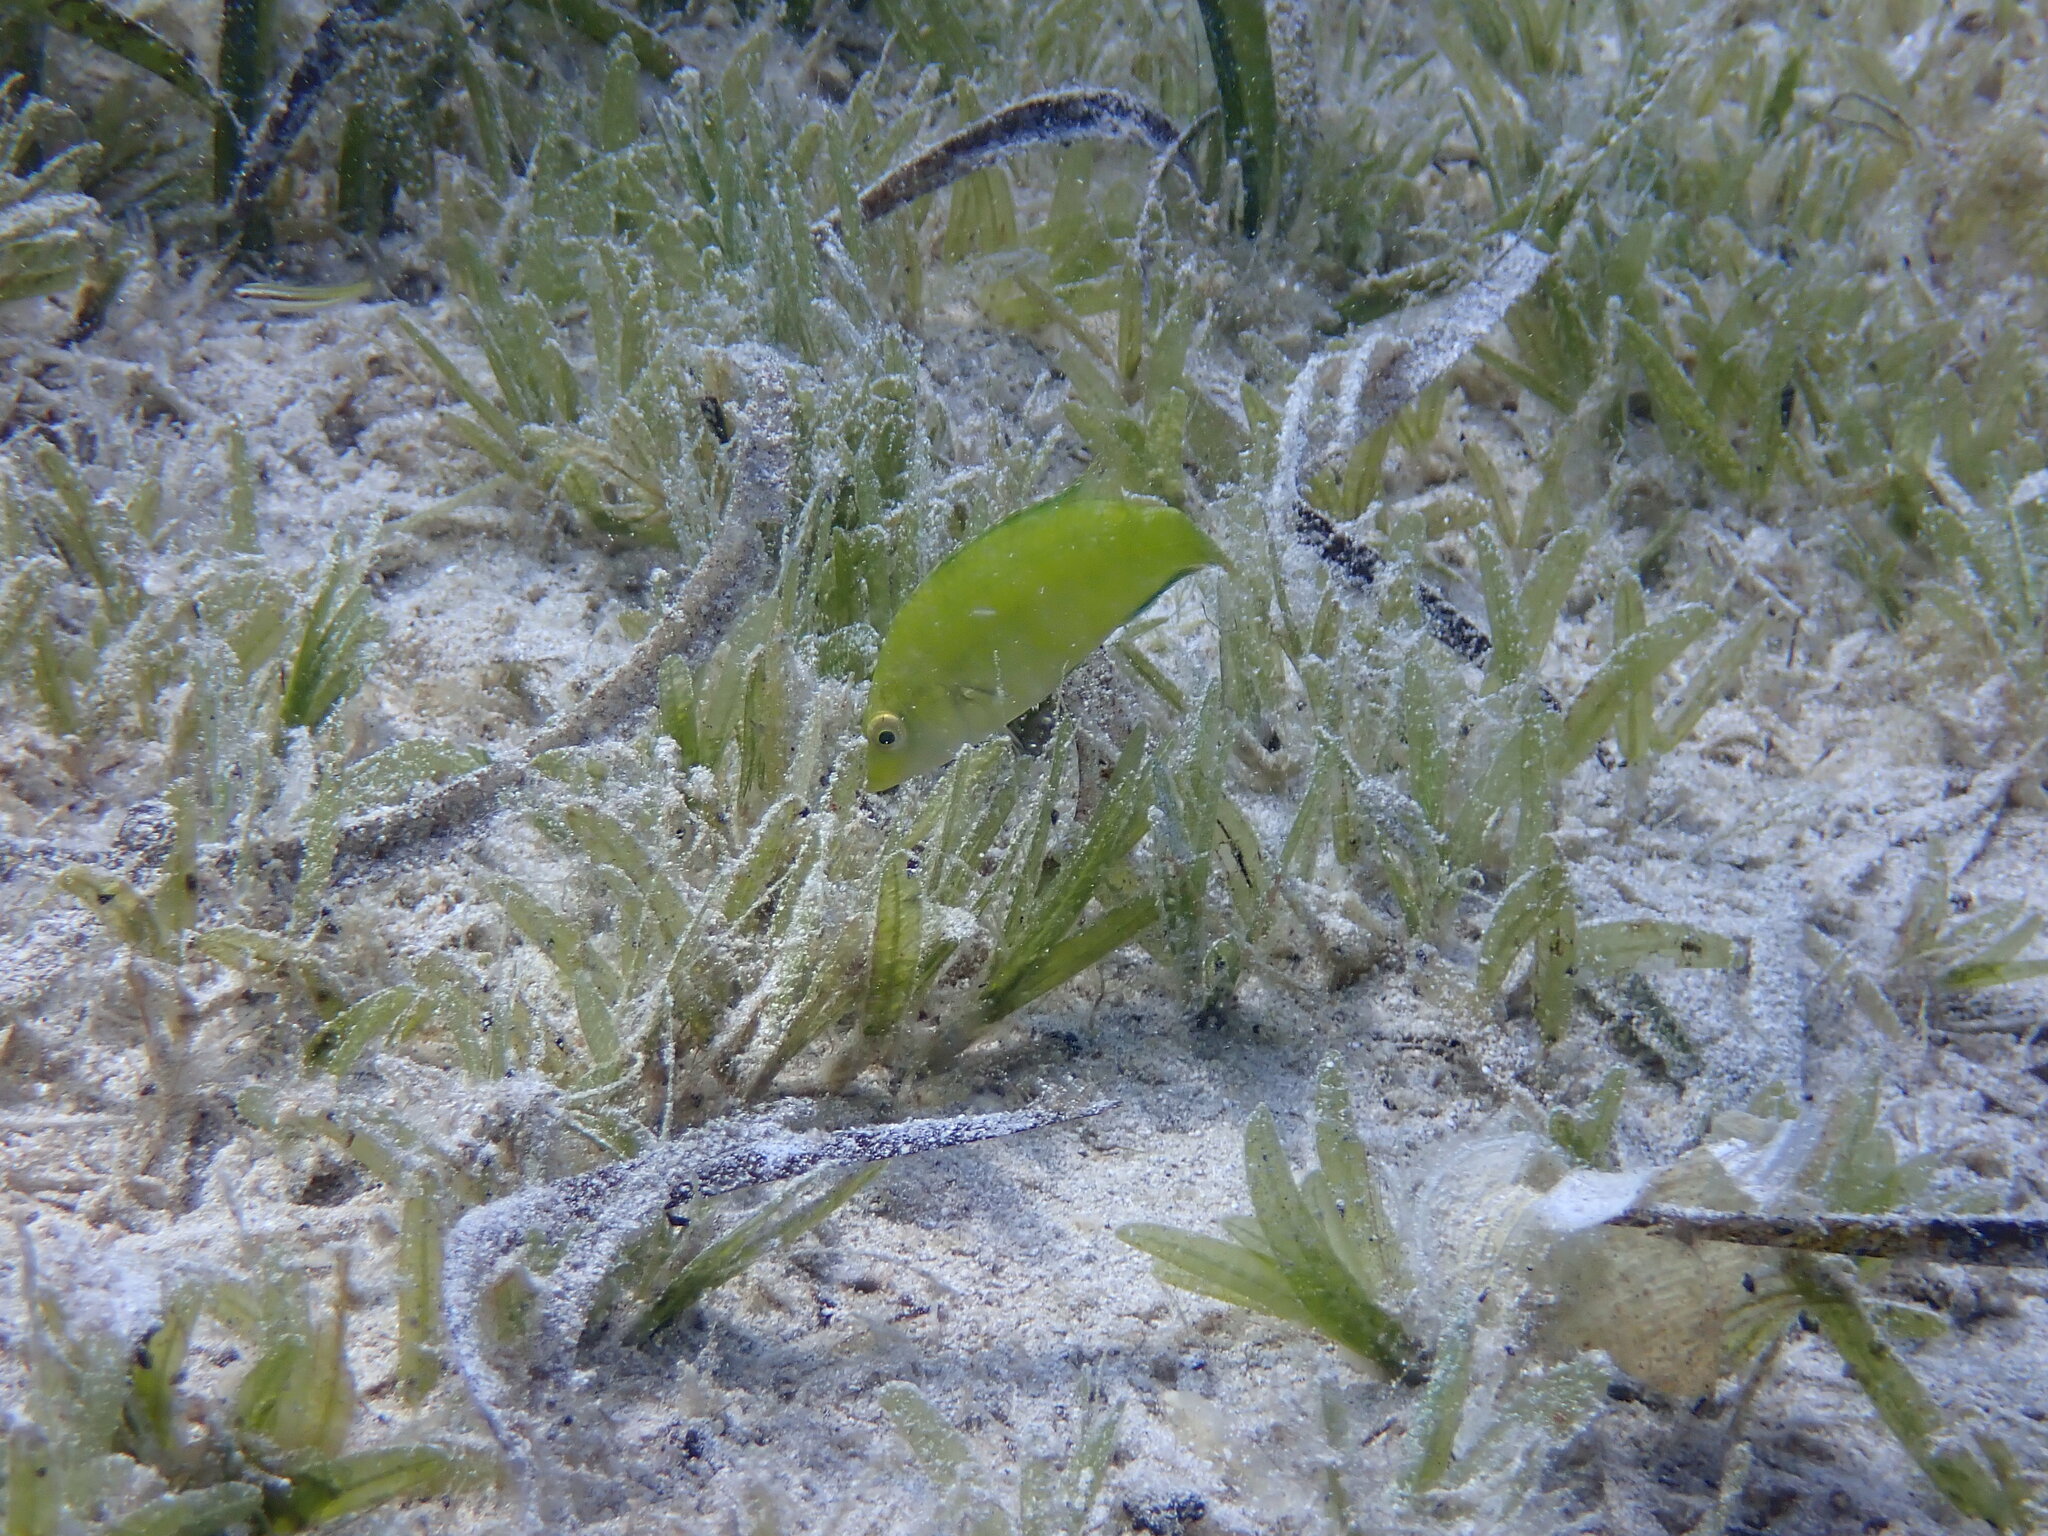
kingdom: Animalia
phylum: Chordata
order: Perciformes
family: Labridae
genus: Symphodus
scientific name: Symphodus cinereus
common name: Grey wrasse
